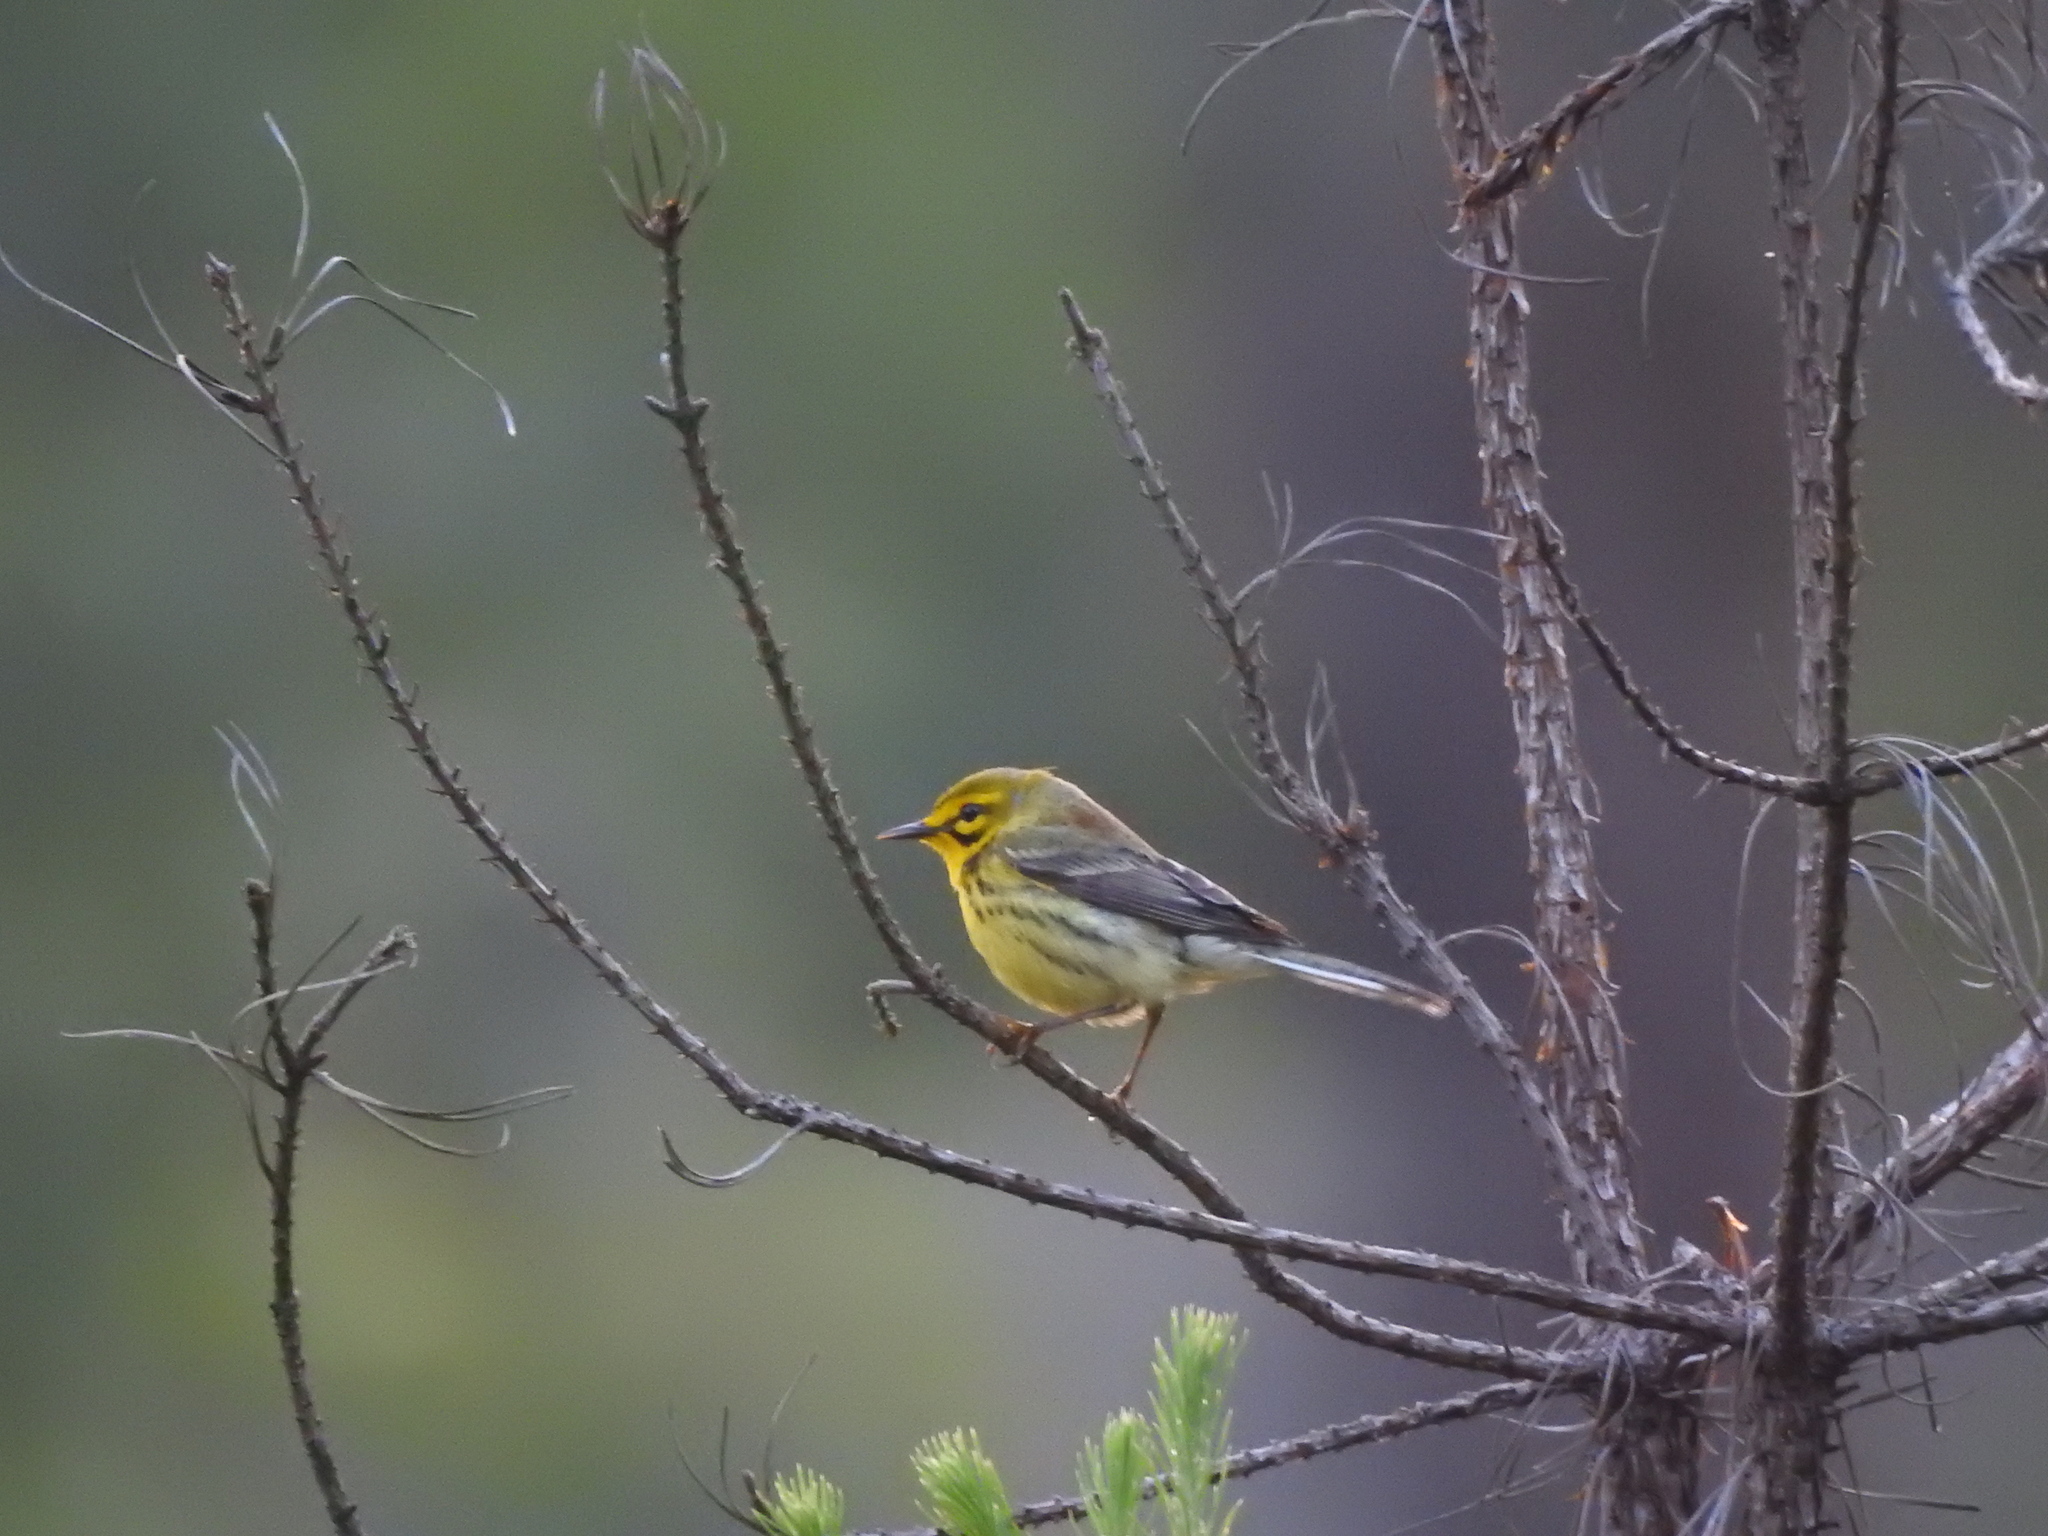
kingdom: Animalia
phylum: Chordata
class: Aves
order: Passeriformes
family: Parulidae
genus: Setophaga
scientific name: Setophaga discolor
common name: Prairie warbler
